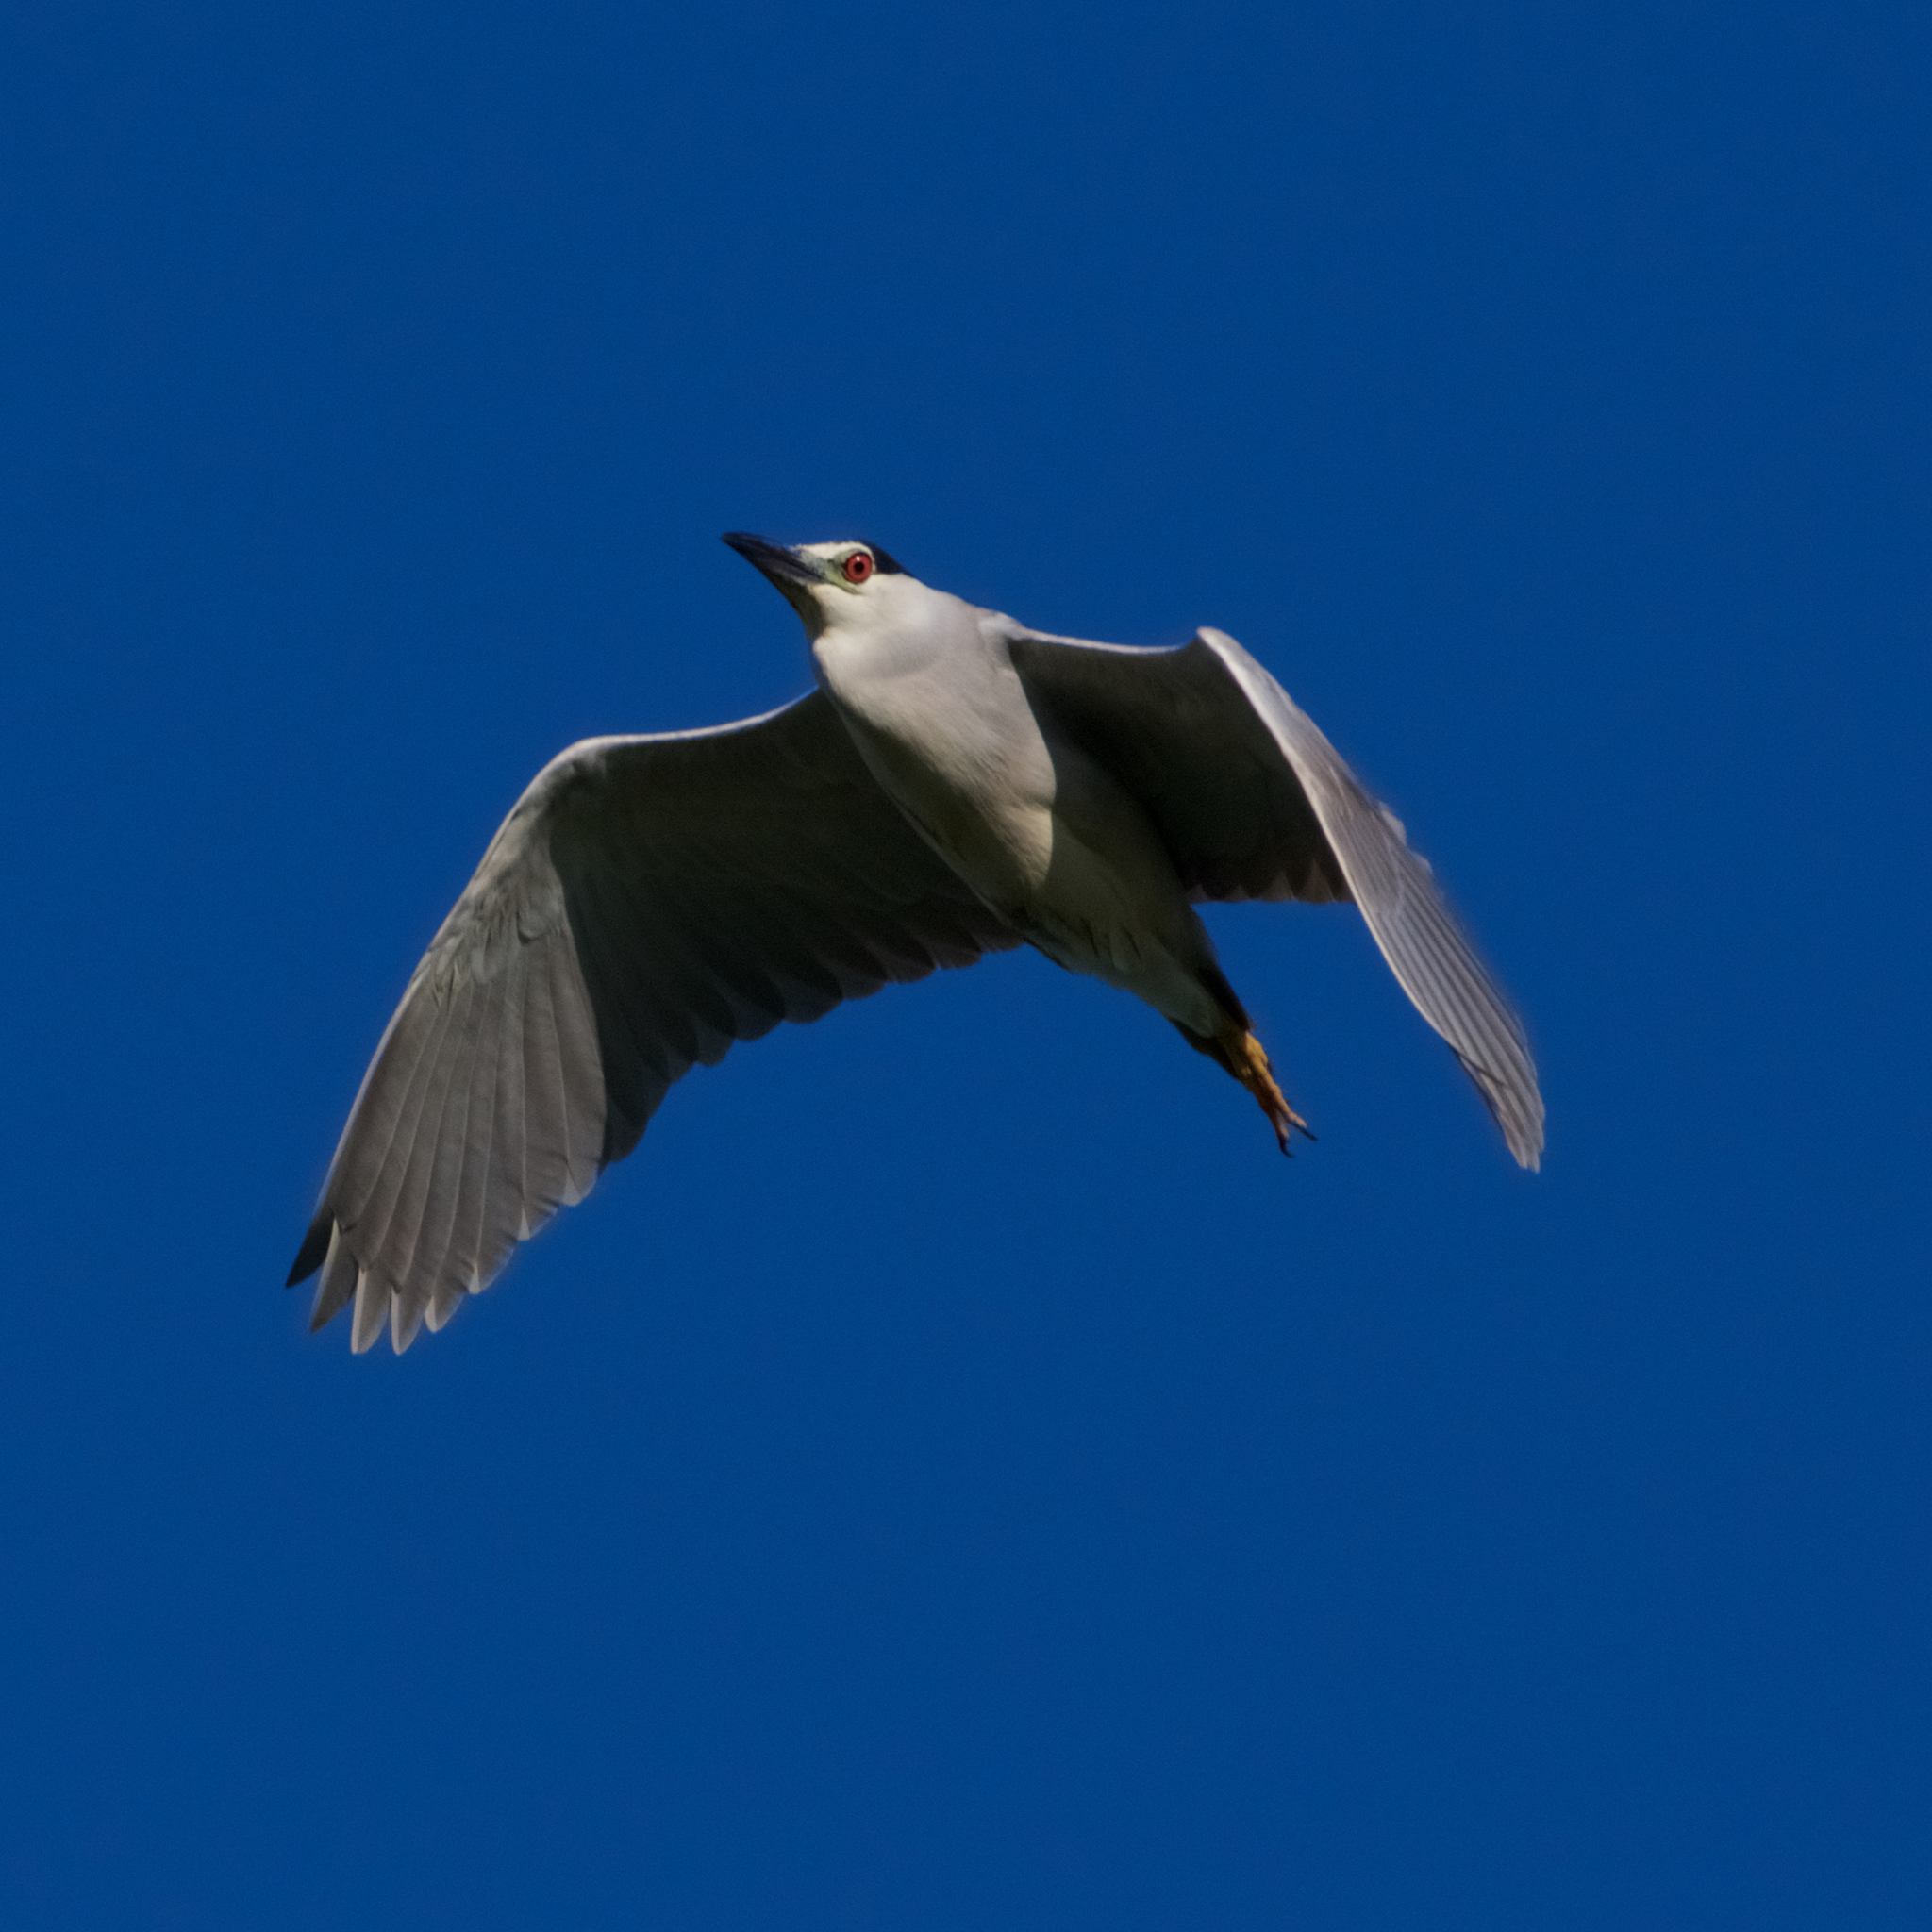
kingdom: Animalia
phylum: Chordata
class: Aves
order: Pelecaniformes
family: Ardeidae
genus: Nycticorax
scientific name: Nycticorax nycticorax
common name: Black-crowned night heron
